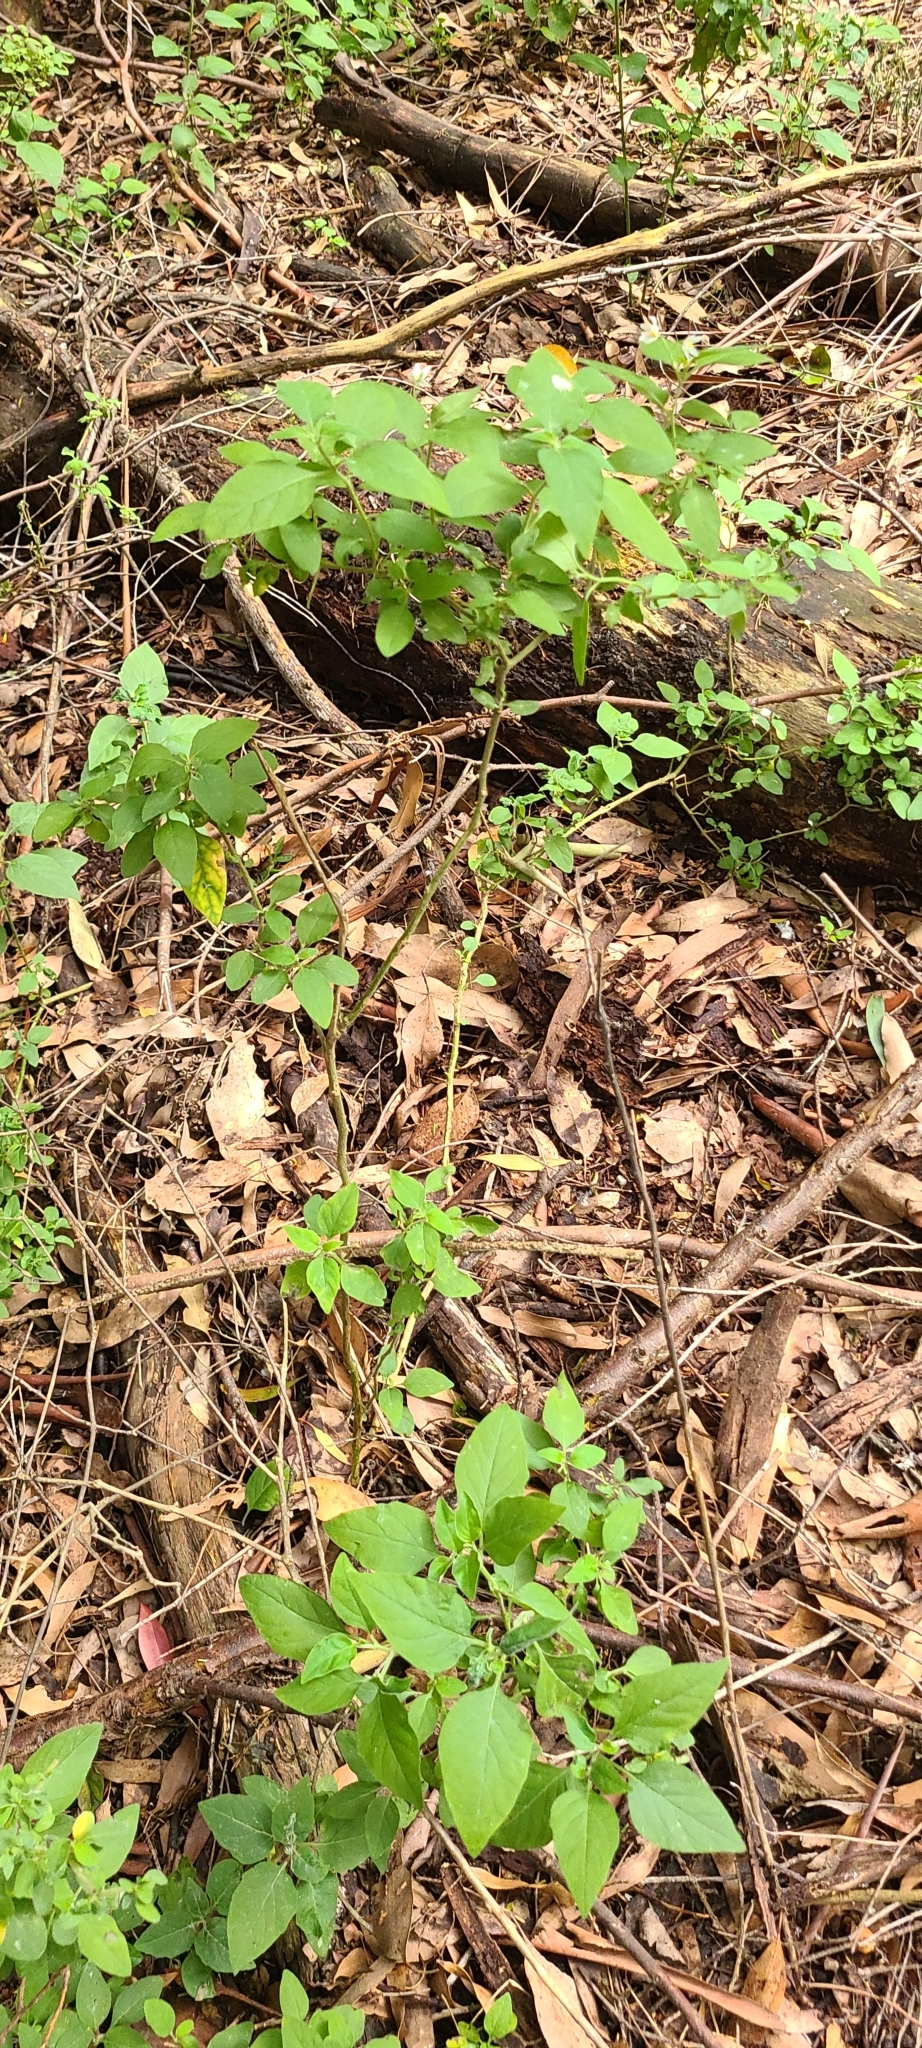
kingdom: Plantae
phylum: Tracheophyta
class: Magnoliopsida
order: Solanales
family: Solanaceae
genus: Solanum
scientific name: Solanum chenopodioides
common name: Tall nightshade
